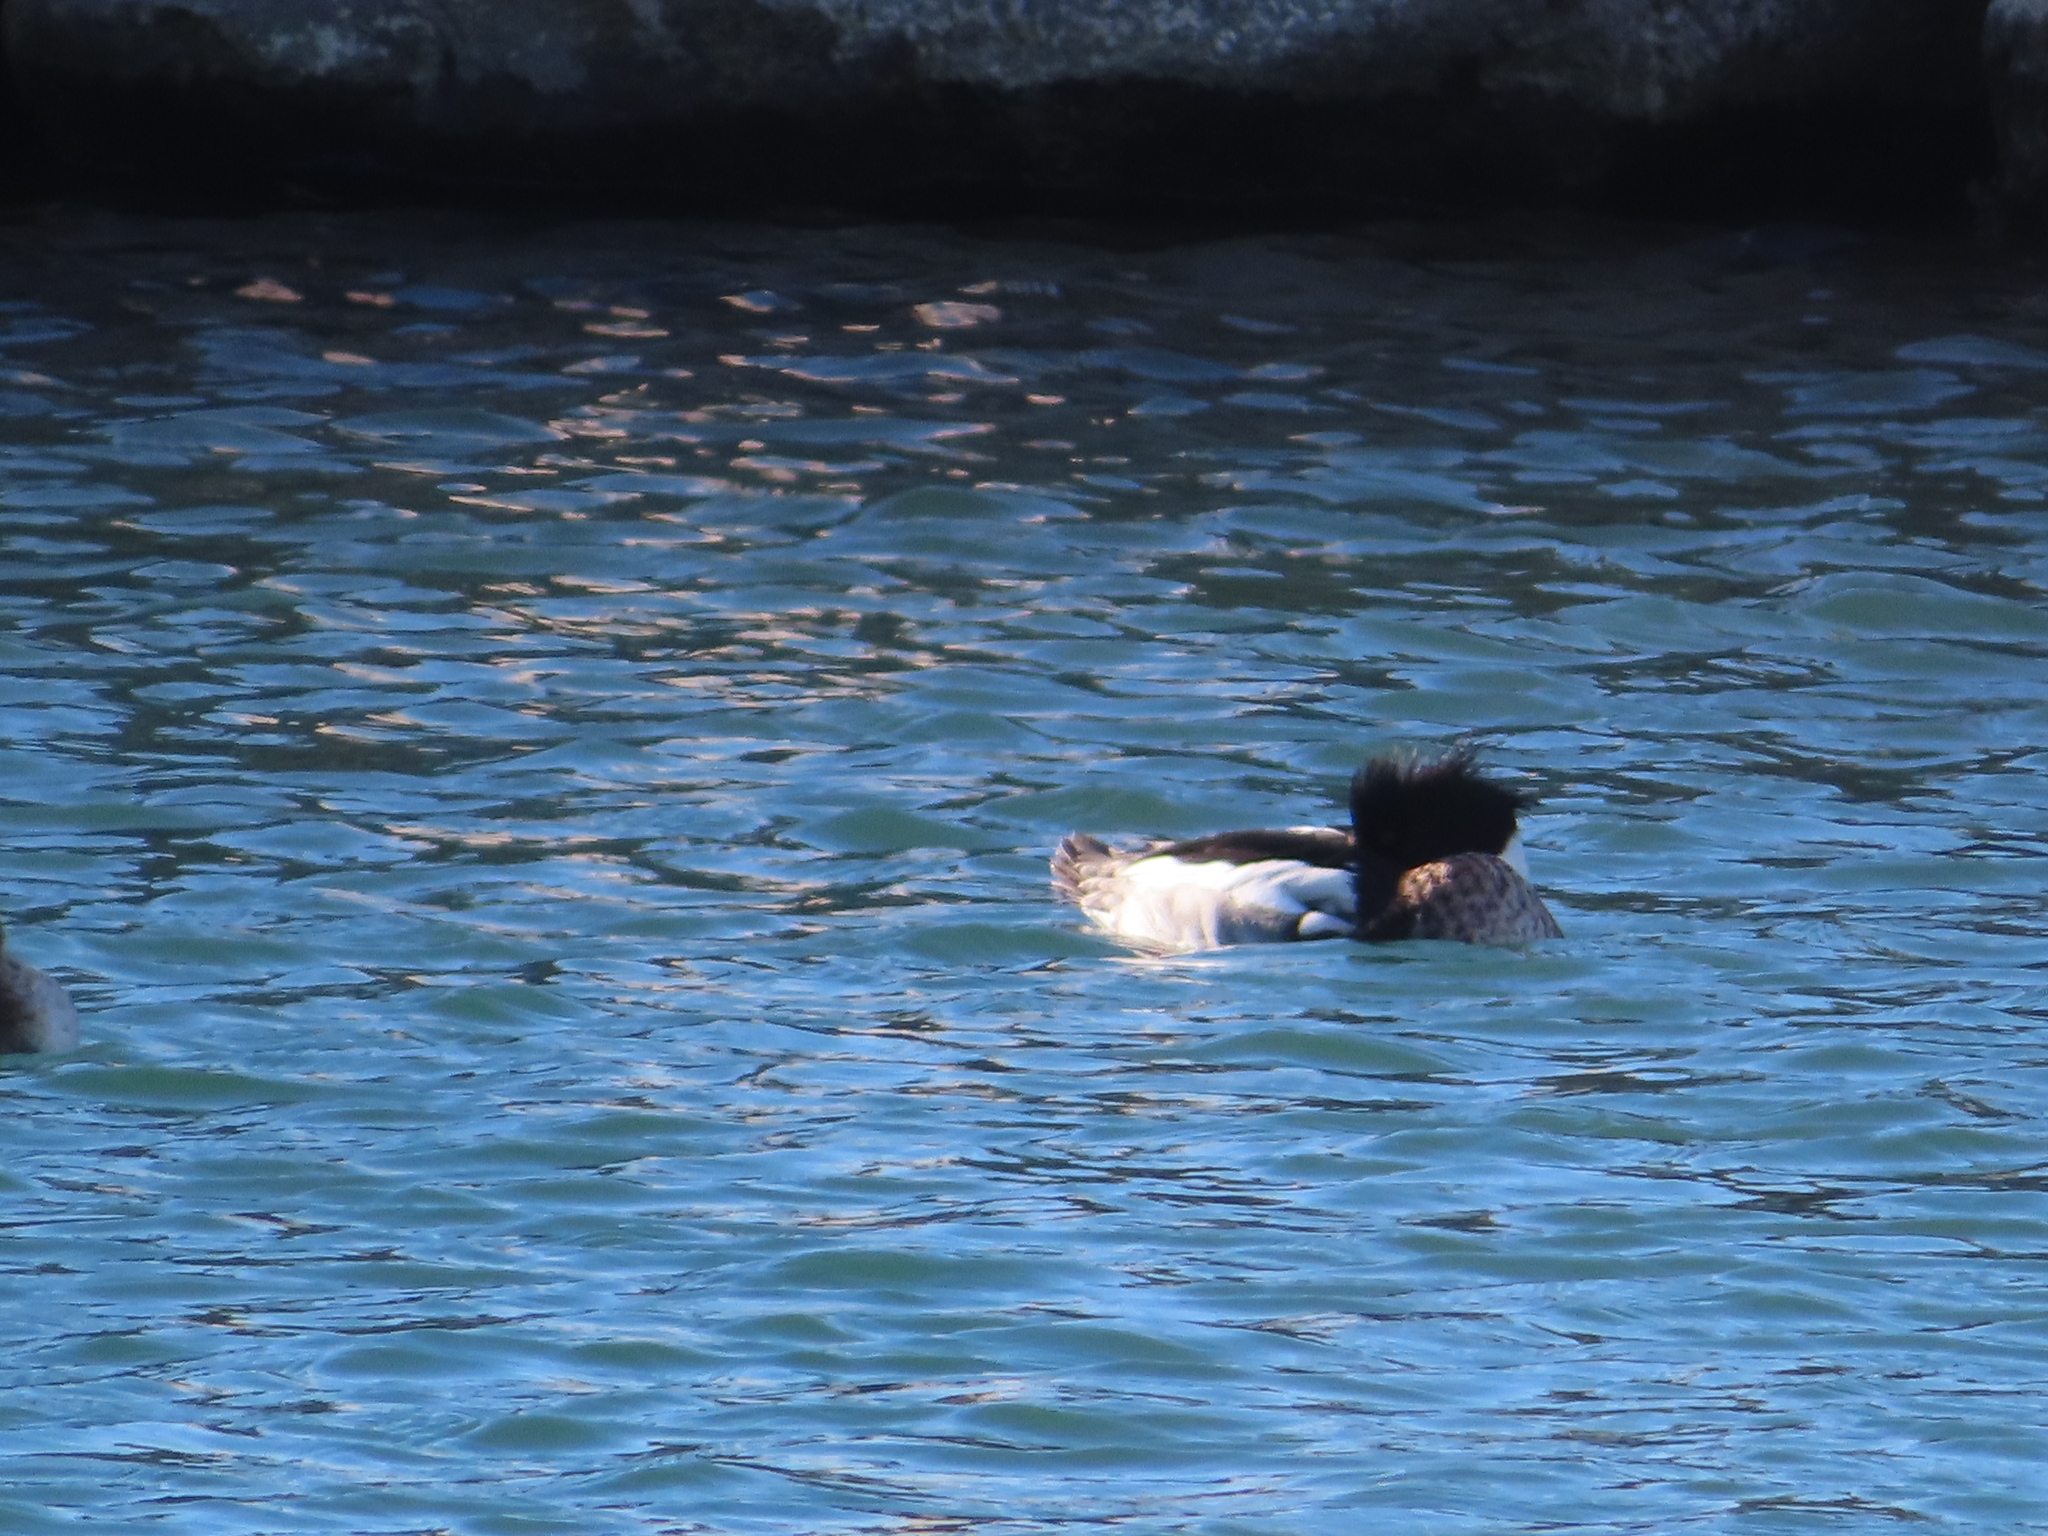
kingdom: Animalia
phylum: Chordata
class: Aves
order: Anseriformes
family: Anatidae
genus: Mergus
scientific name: Mergus serrator
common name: Red-breasted merganser
